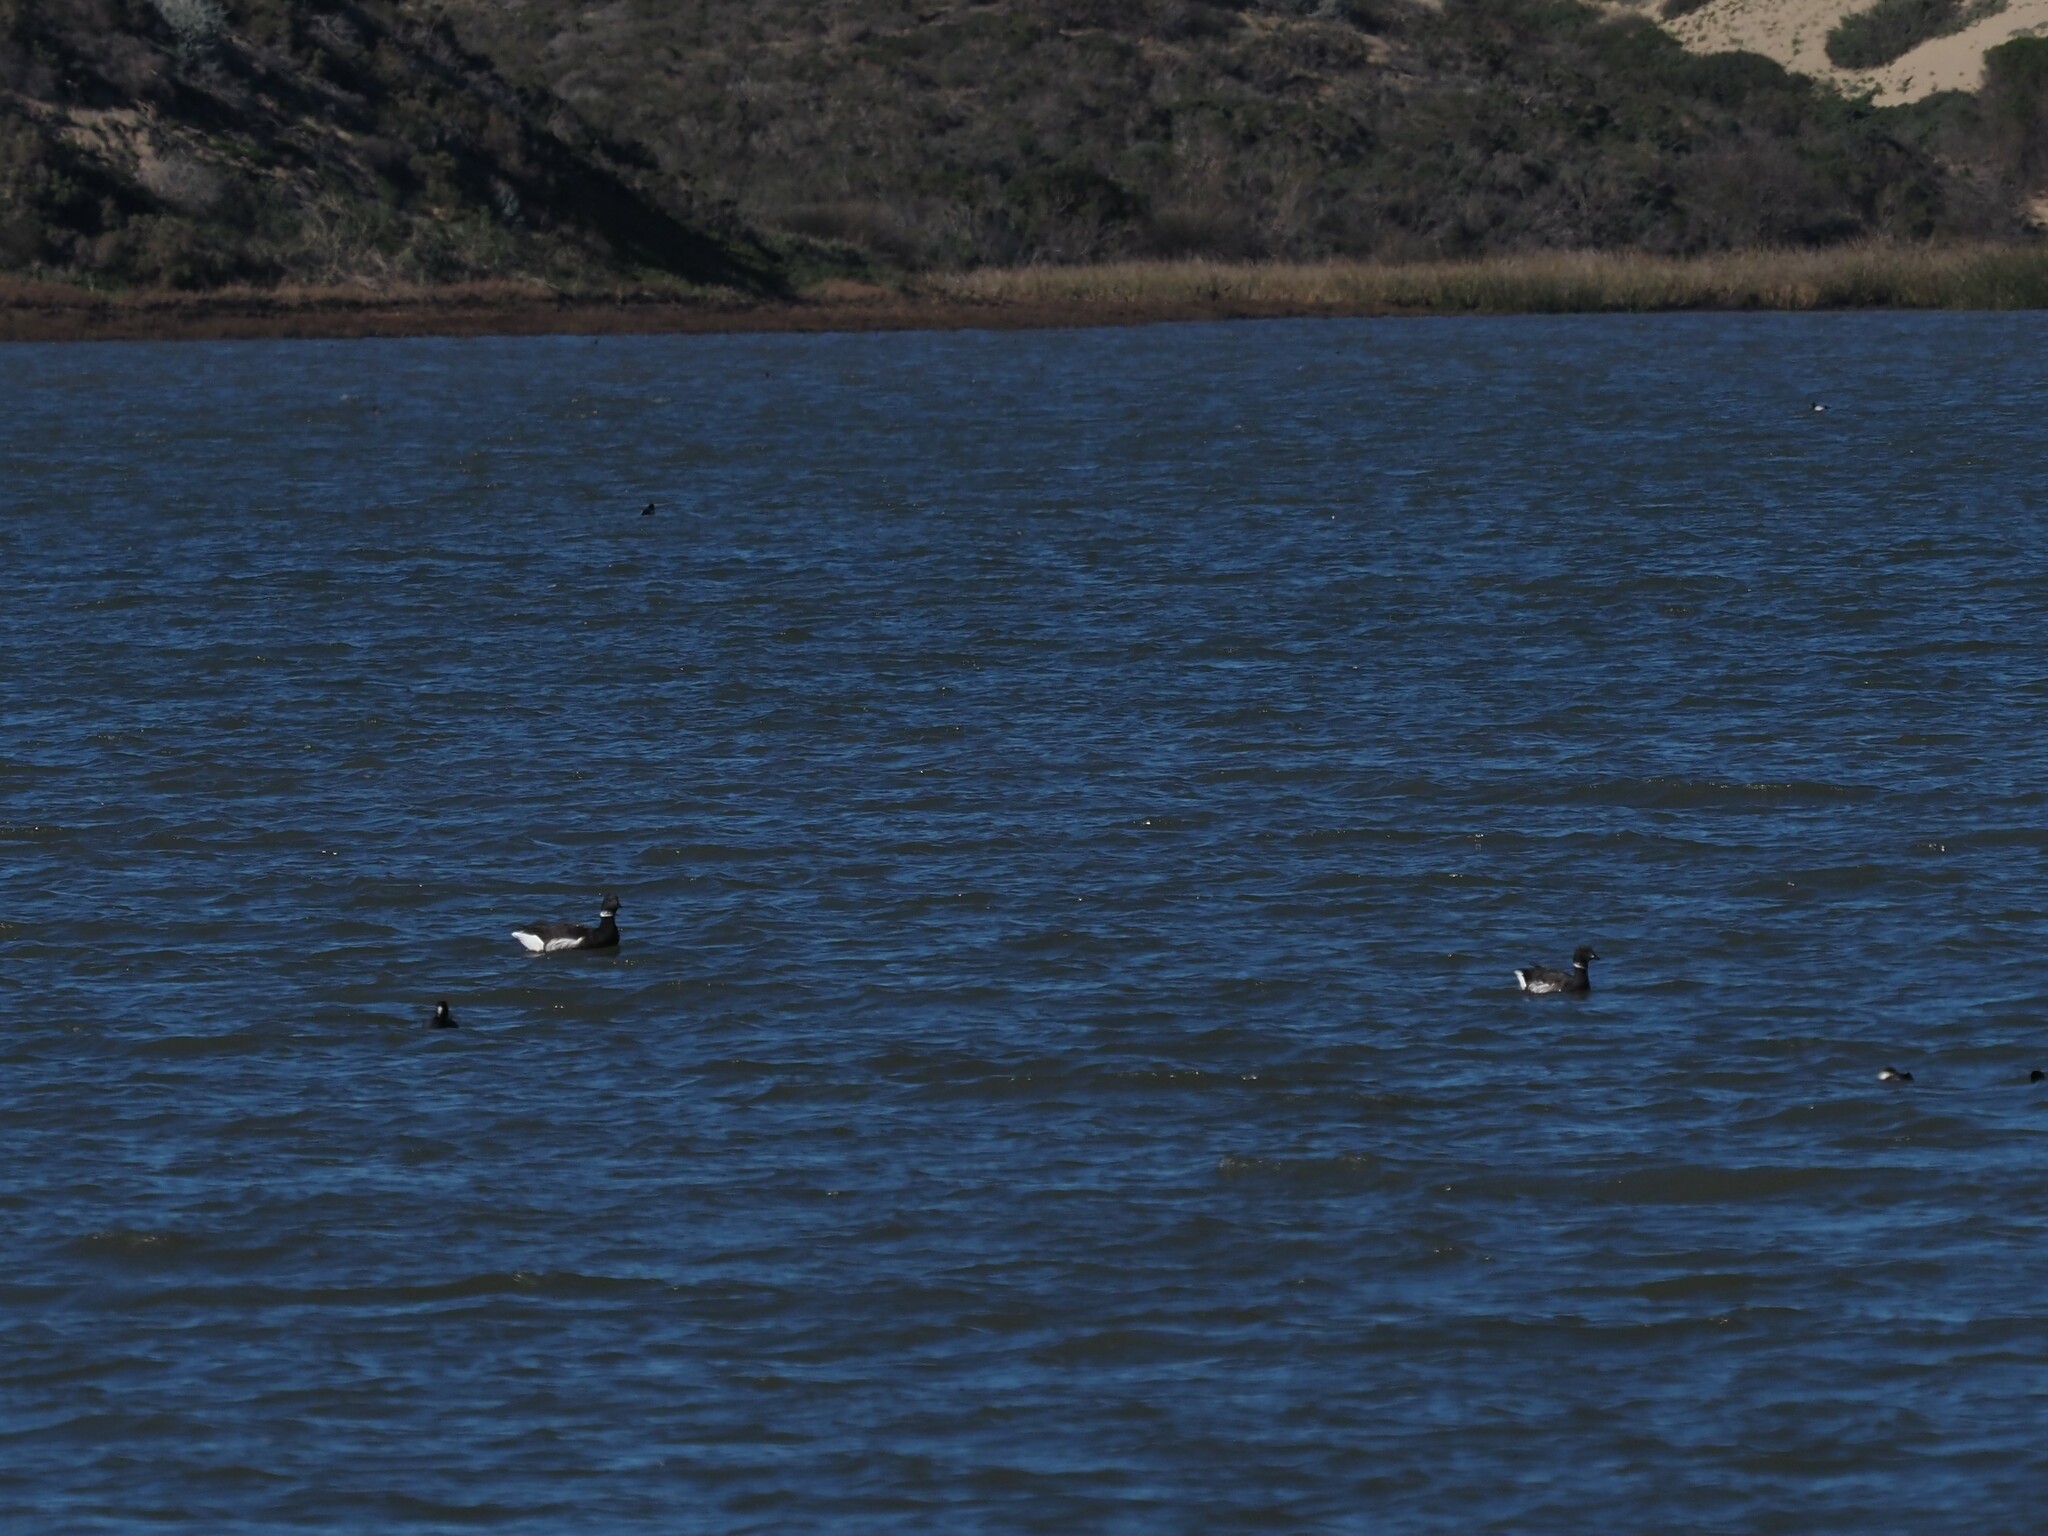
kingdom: Animalia
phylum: Chordata
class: Aves
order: Anseriformes
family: Anatidae
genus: Branta
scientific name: Branta bernicla
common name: Brant goose
